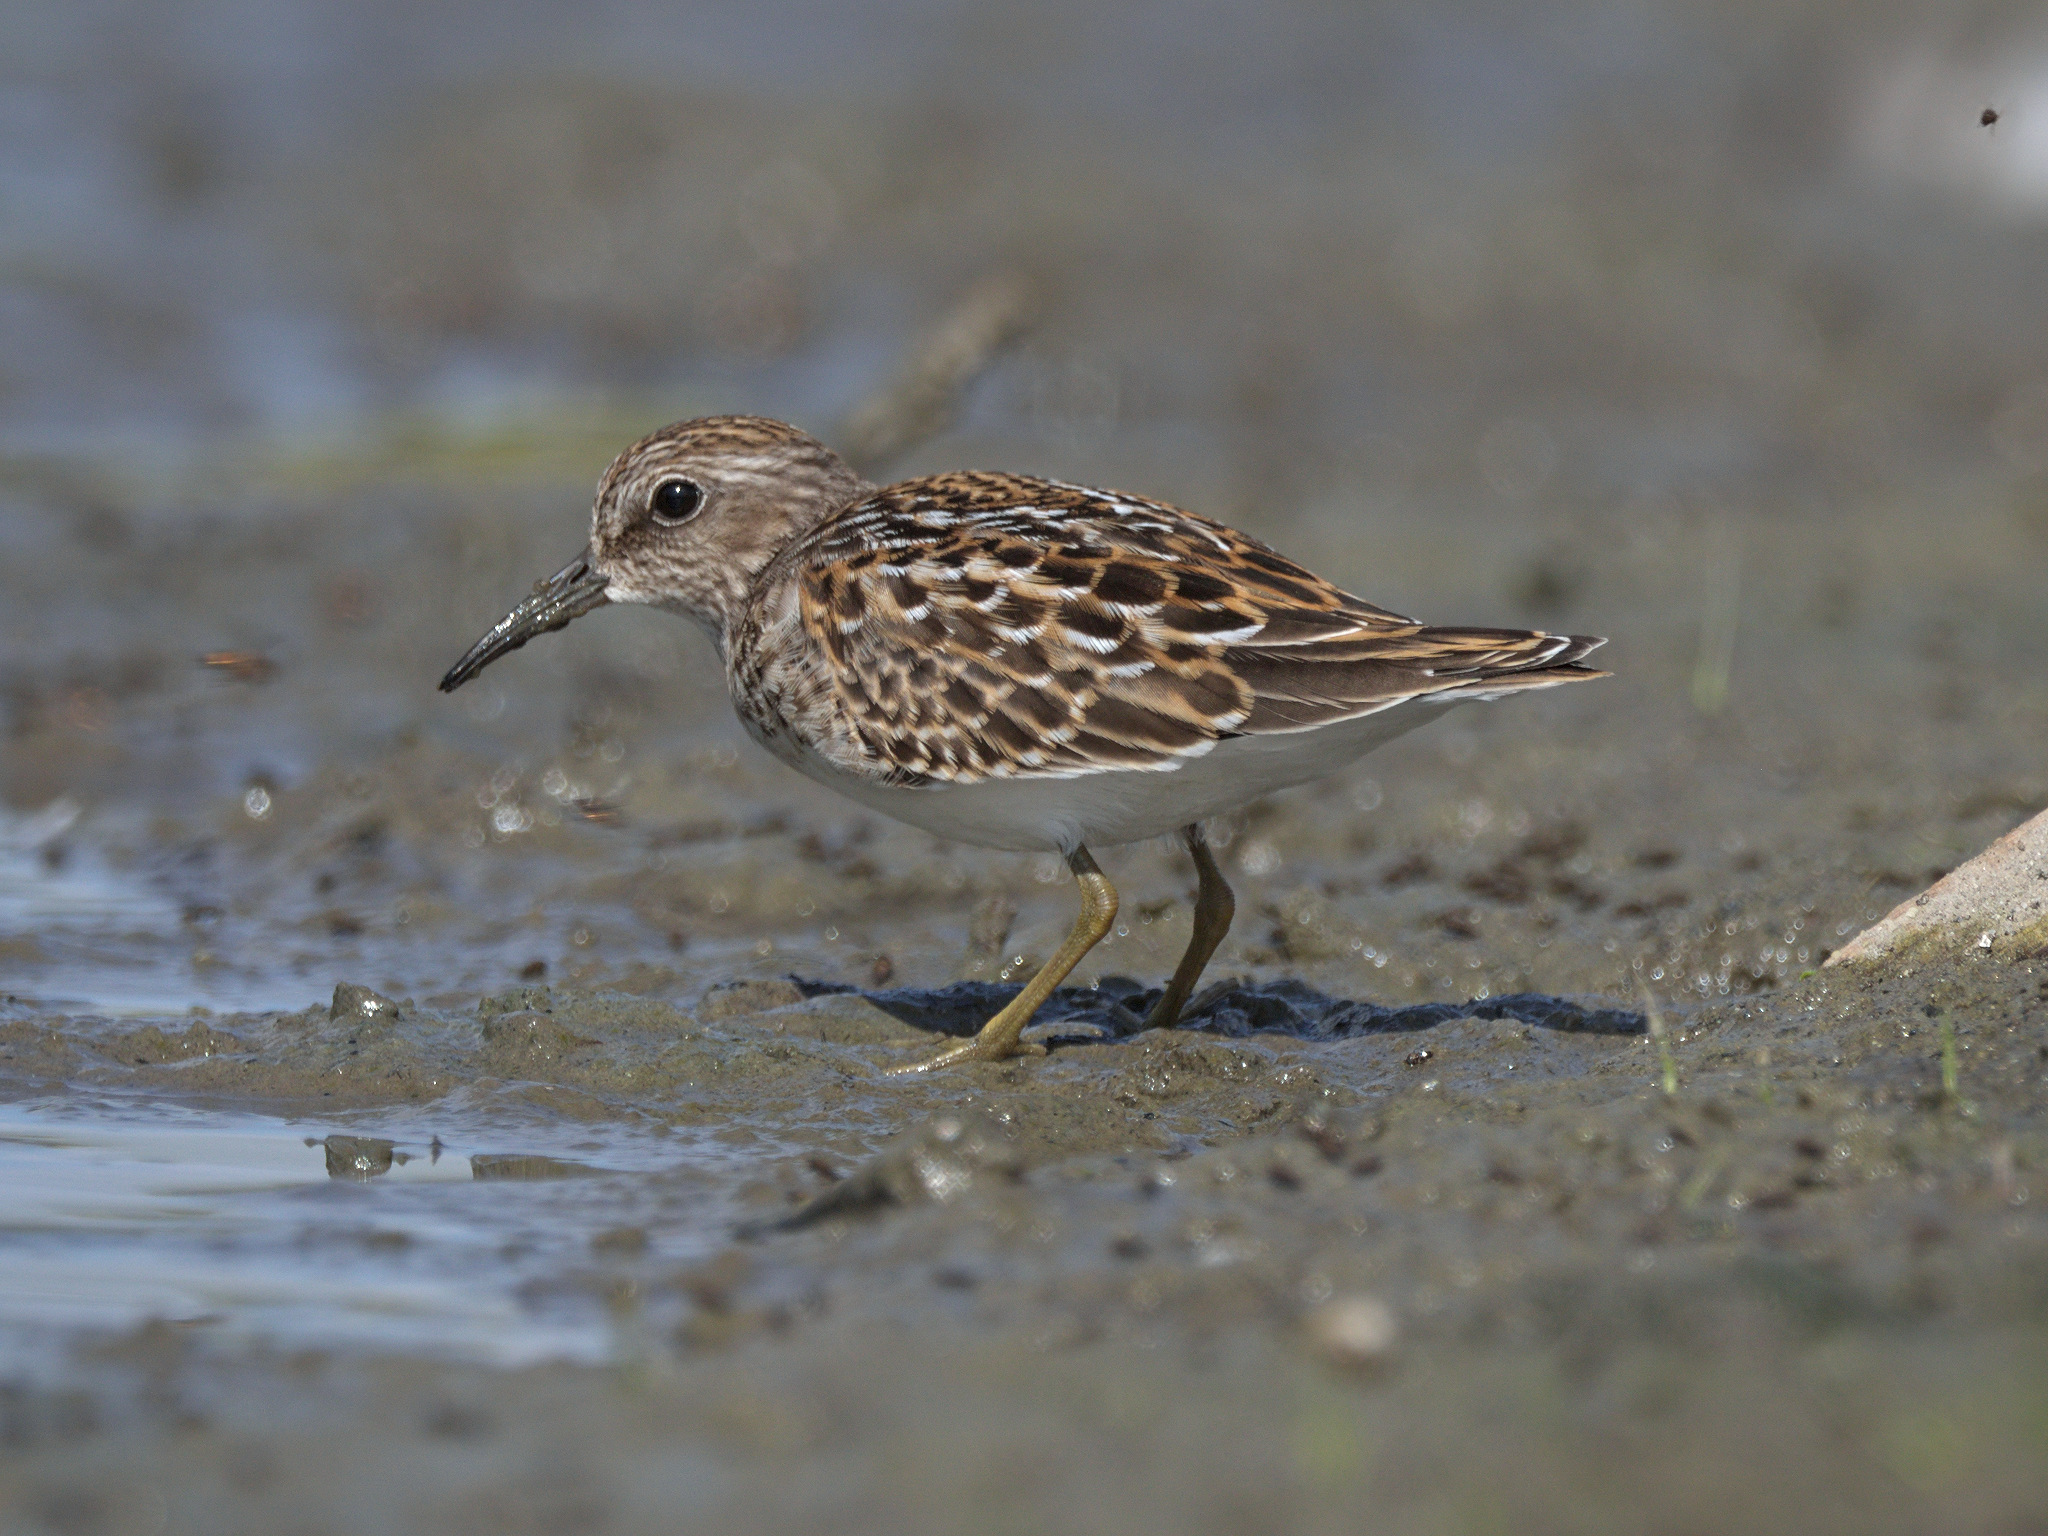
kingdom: Animalia
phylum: Chordata
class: Aves
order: Charadriiformes
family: Scolopacidae
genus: Calidris
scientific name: Calidris minutilla
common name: Least sandpiper
